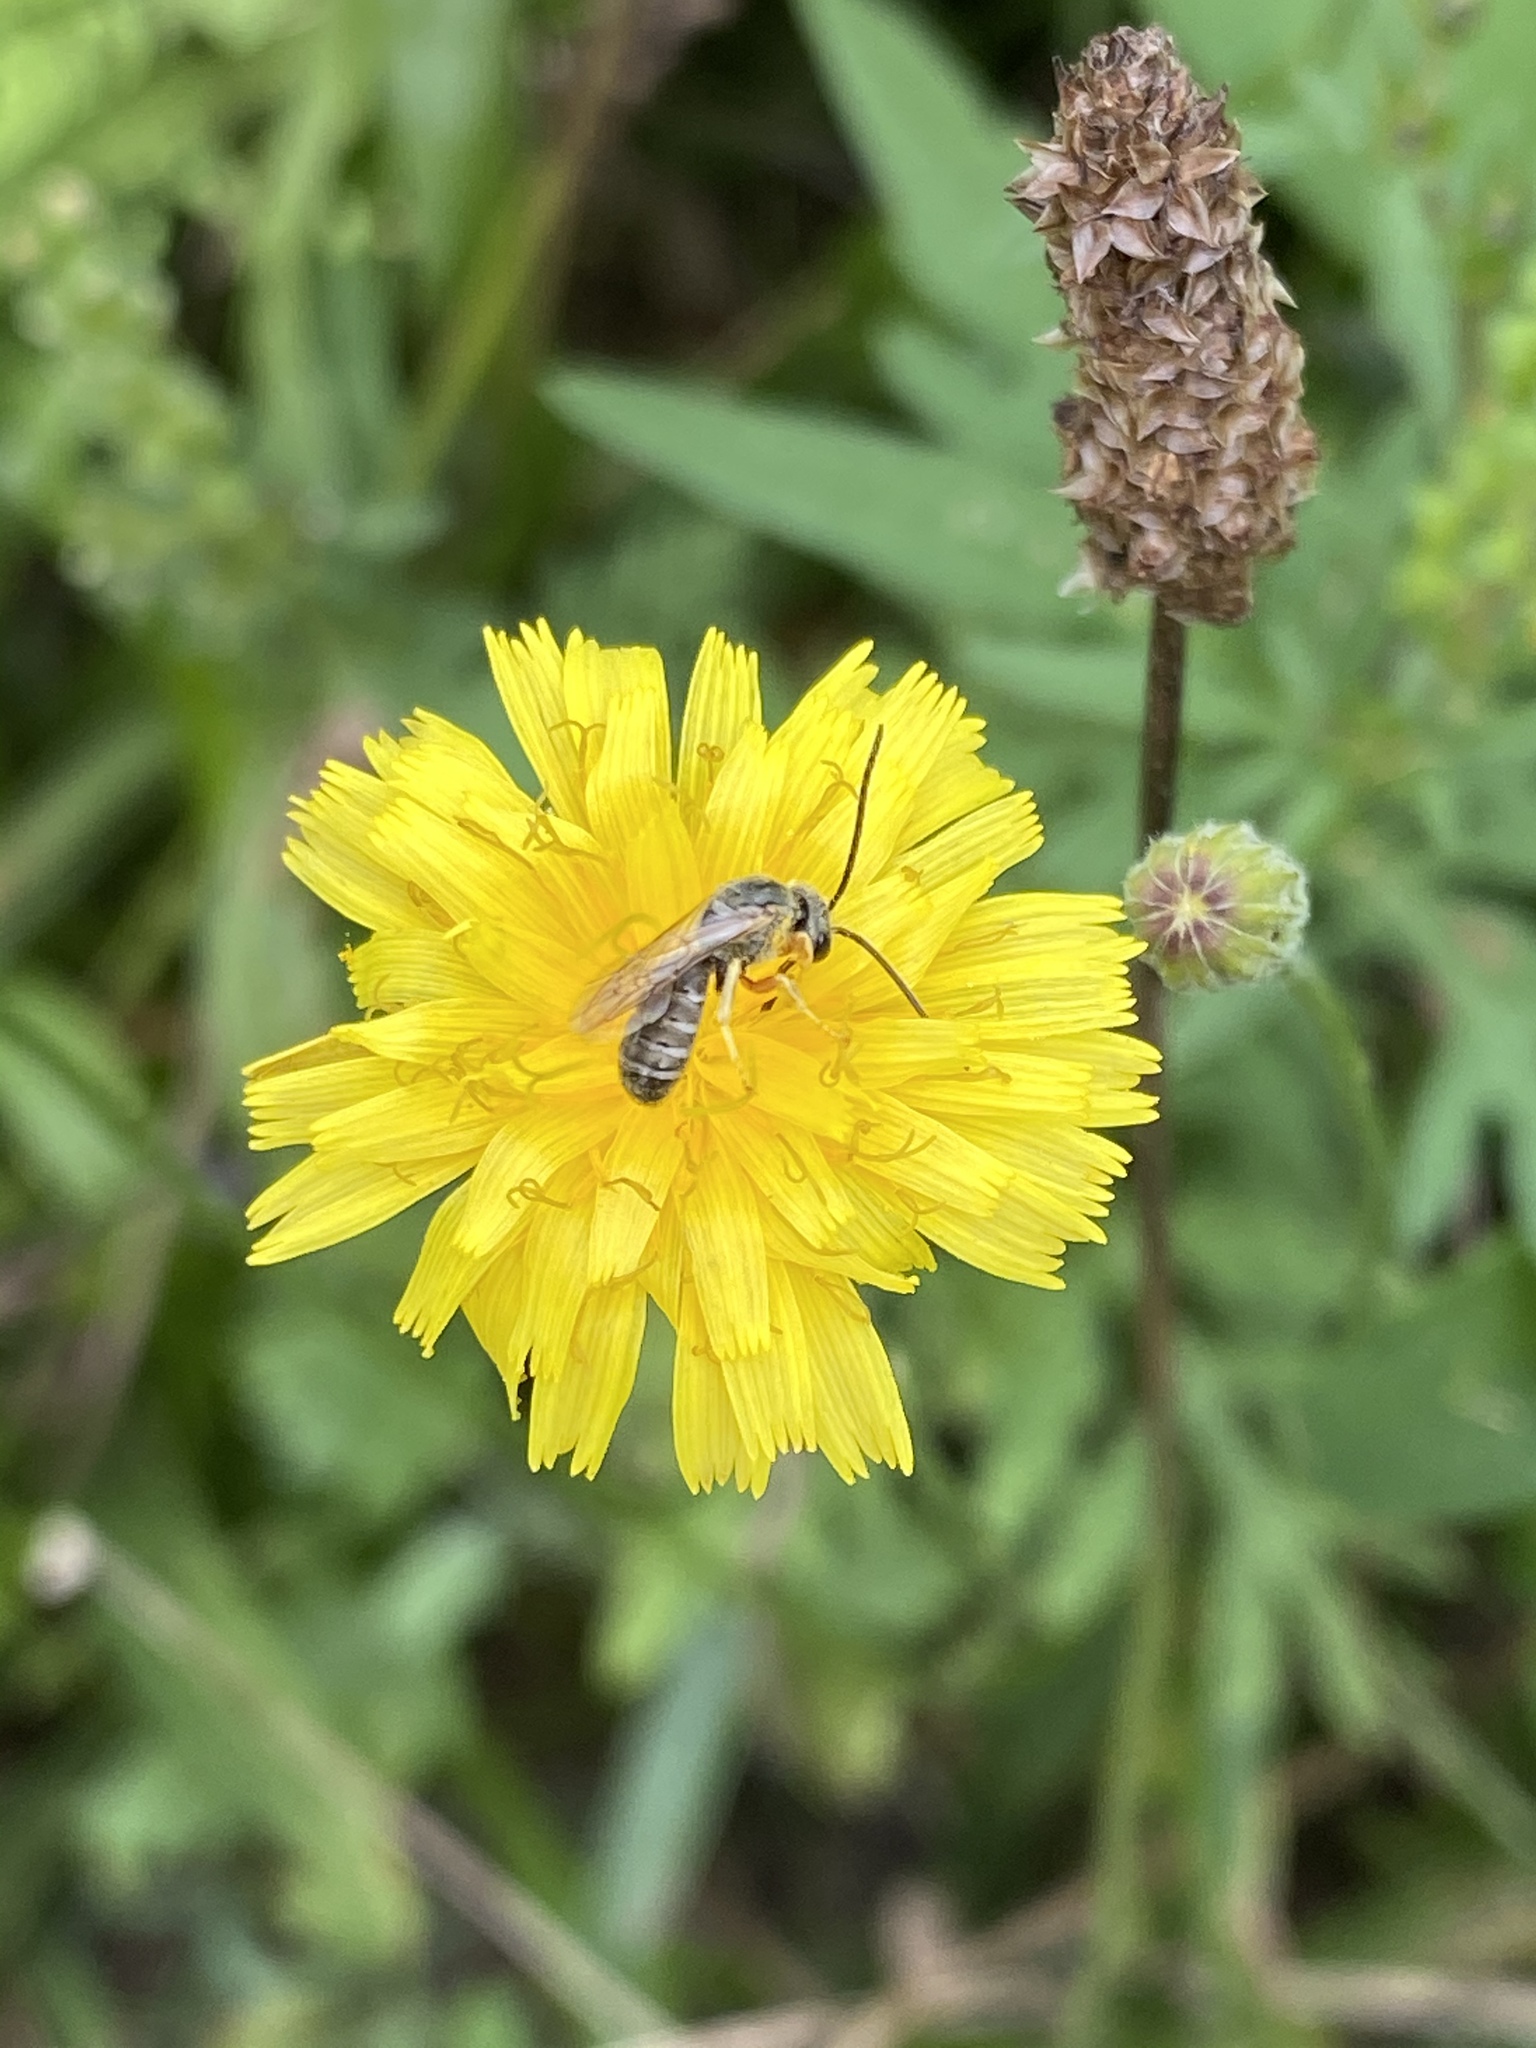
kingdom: Animalia
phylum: Arthropoda
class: Insecta
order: Hymenoptera
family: Halictidae
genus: Halictus
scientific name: Halictus confusus
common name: Southern bronze furrow bee
